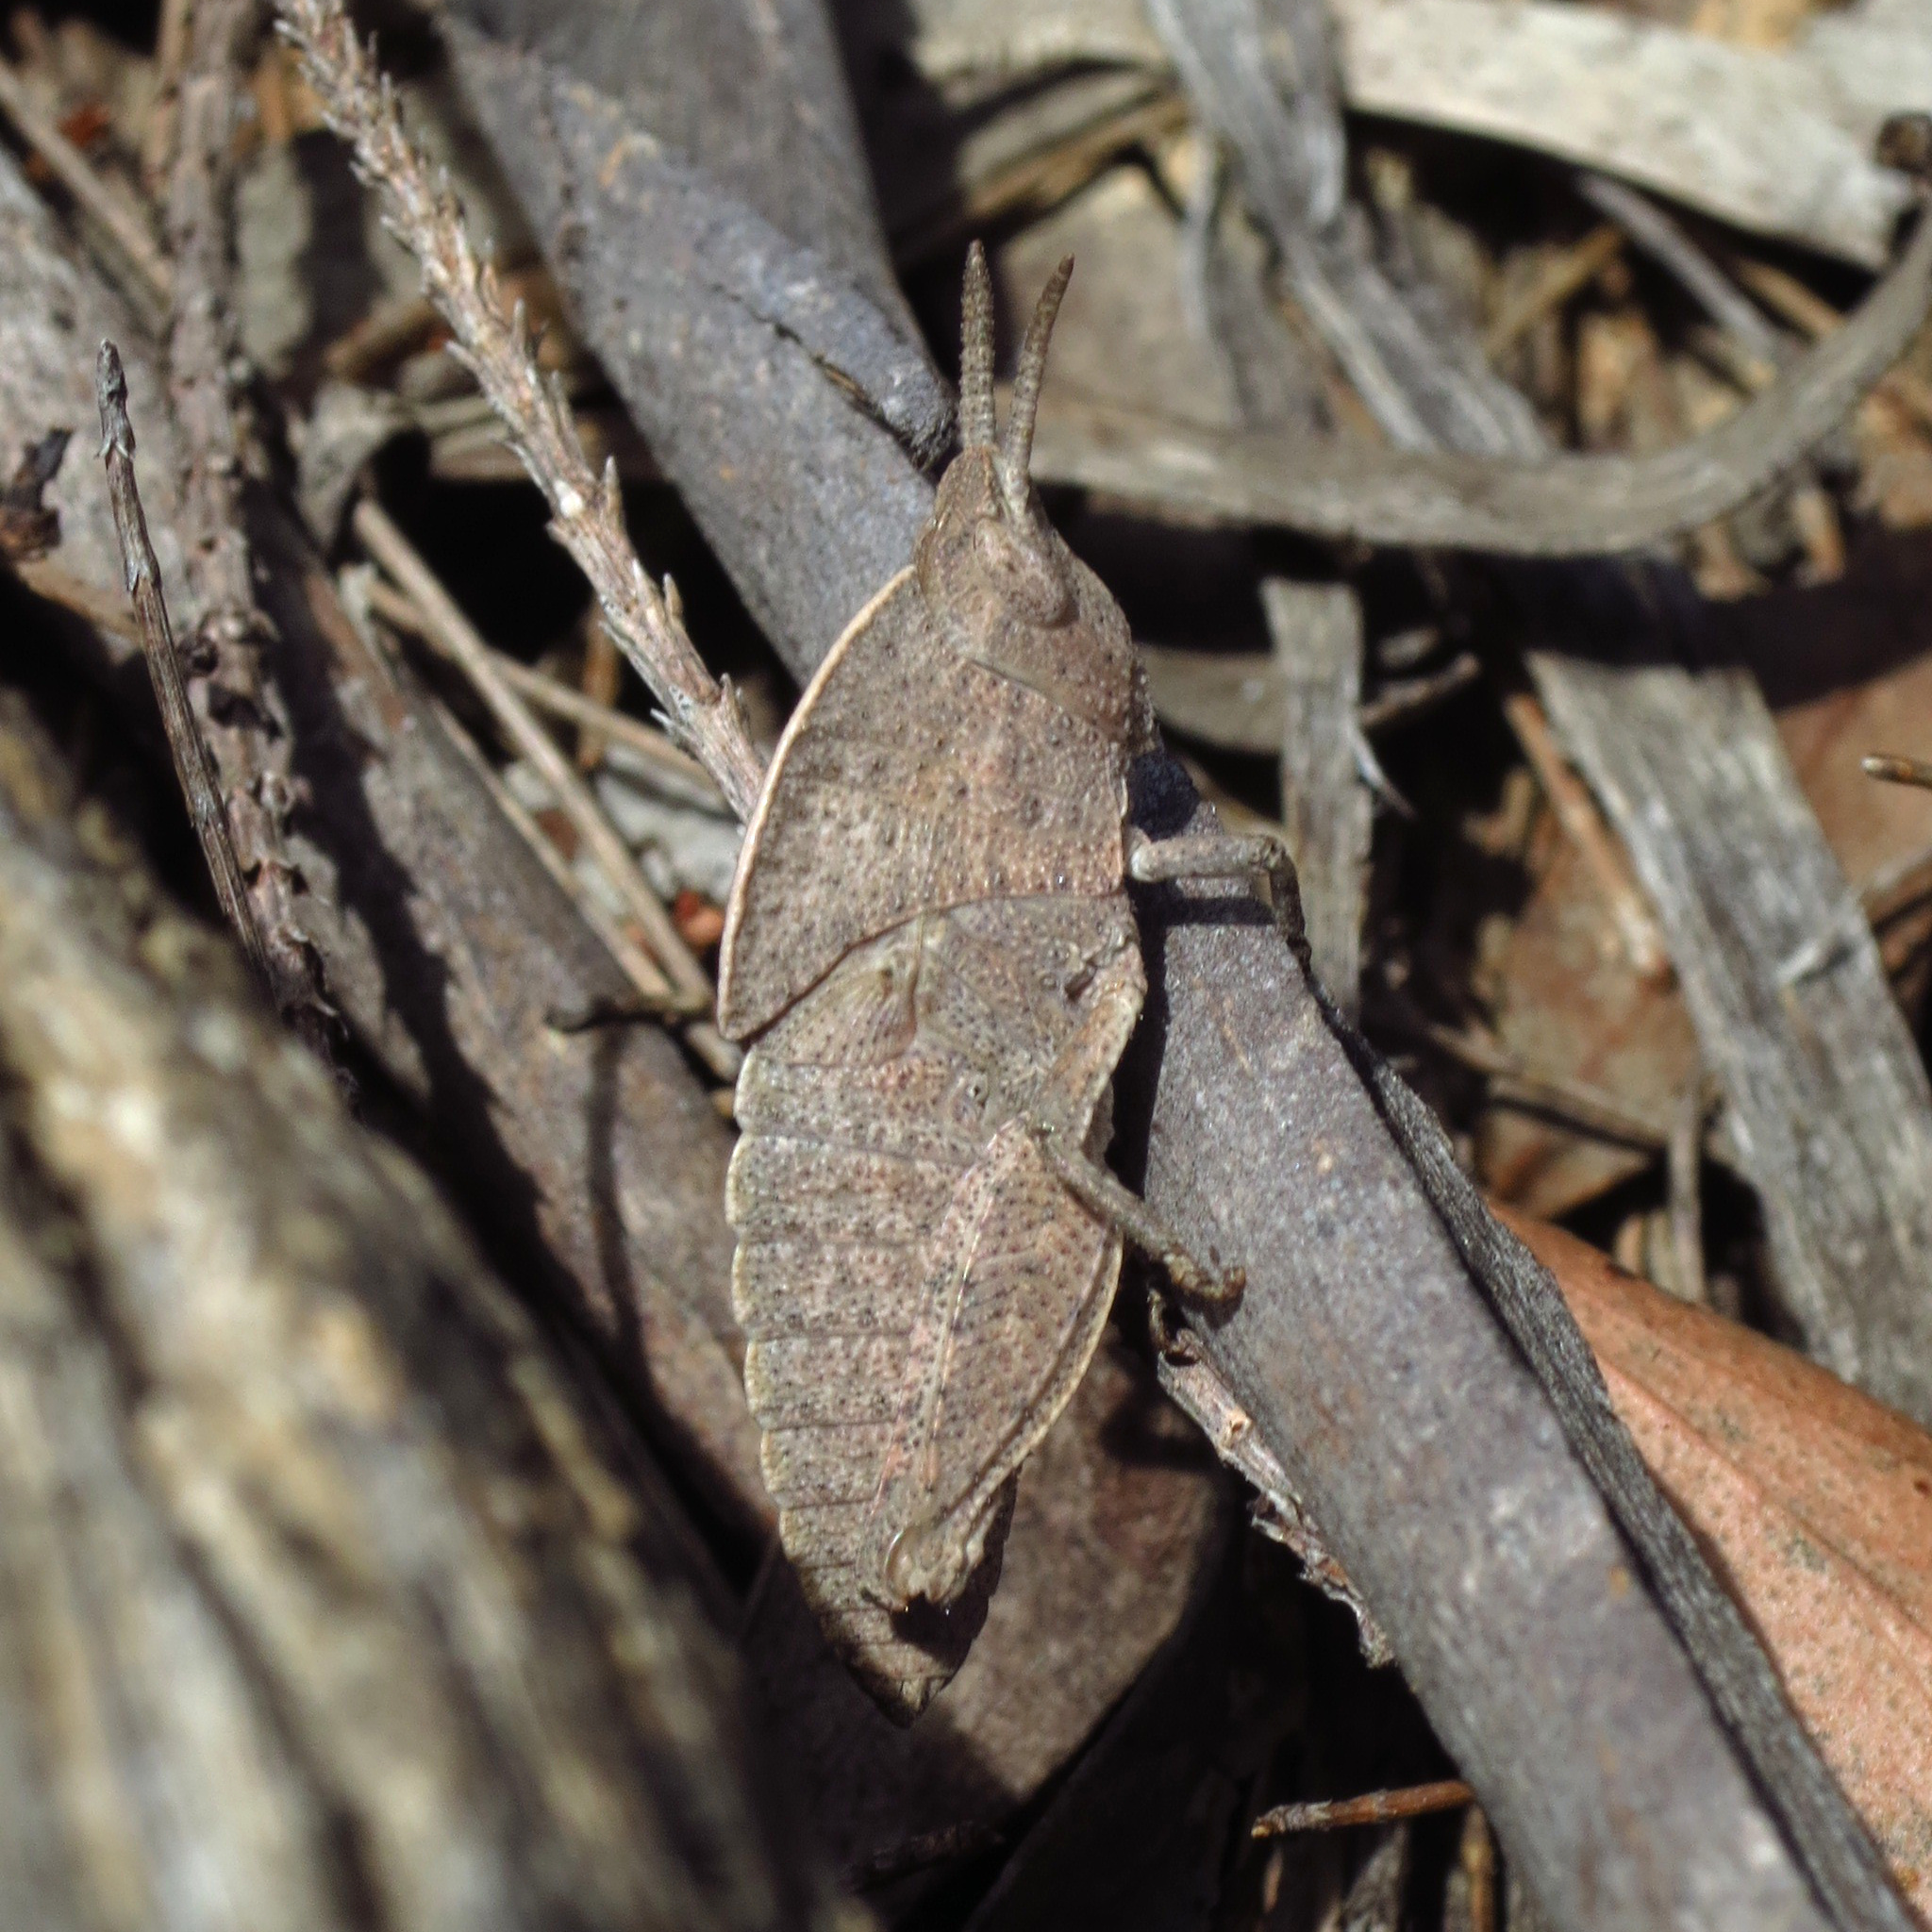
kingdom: Animalia
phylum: Arthropoda
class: Insecta
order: Orthoptera
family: Acrididae
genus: Goniaea
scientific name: Goniaea australasiae
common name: Gumleaf grasshopper
